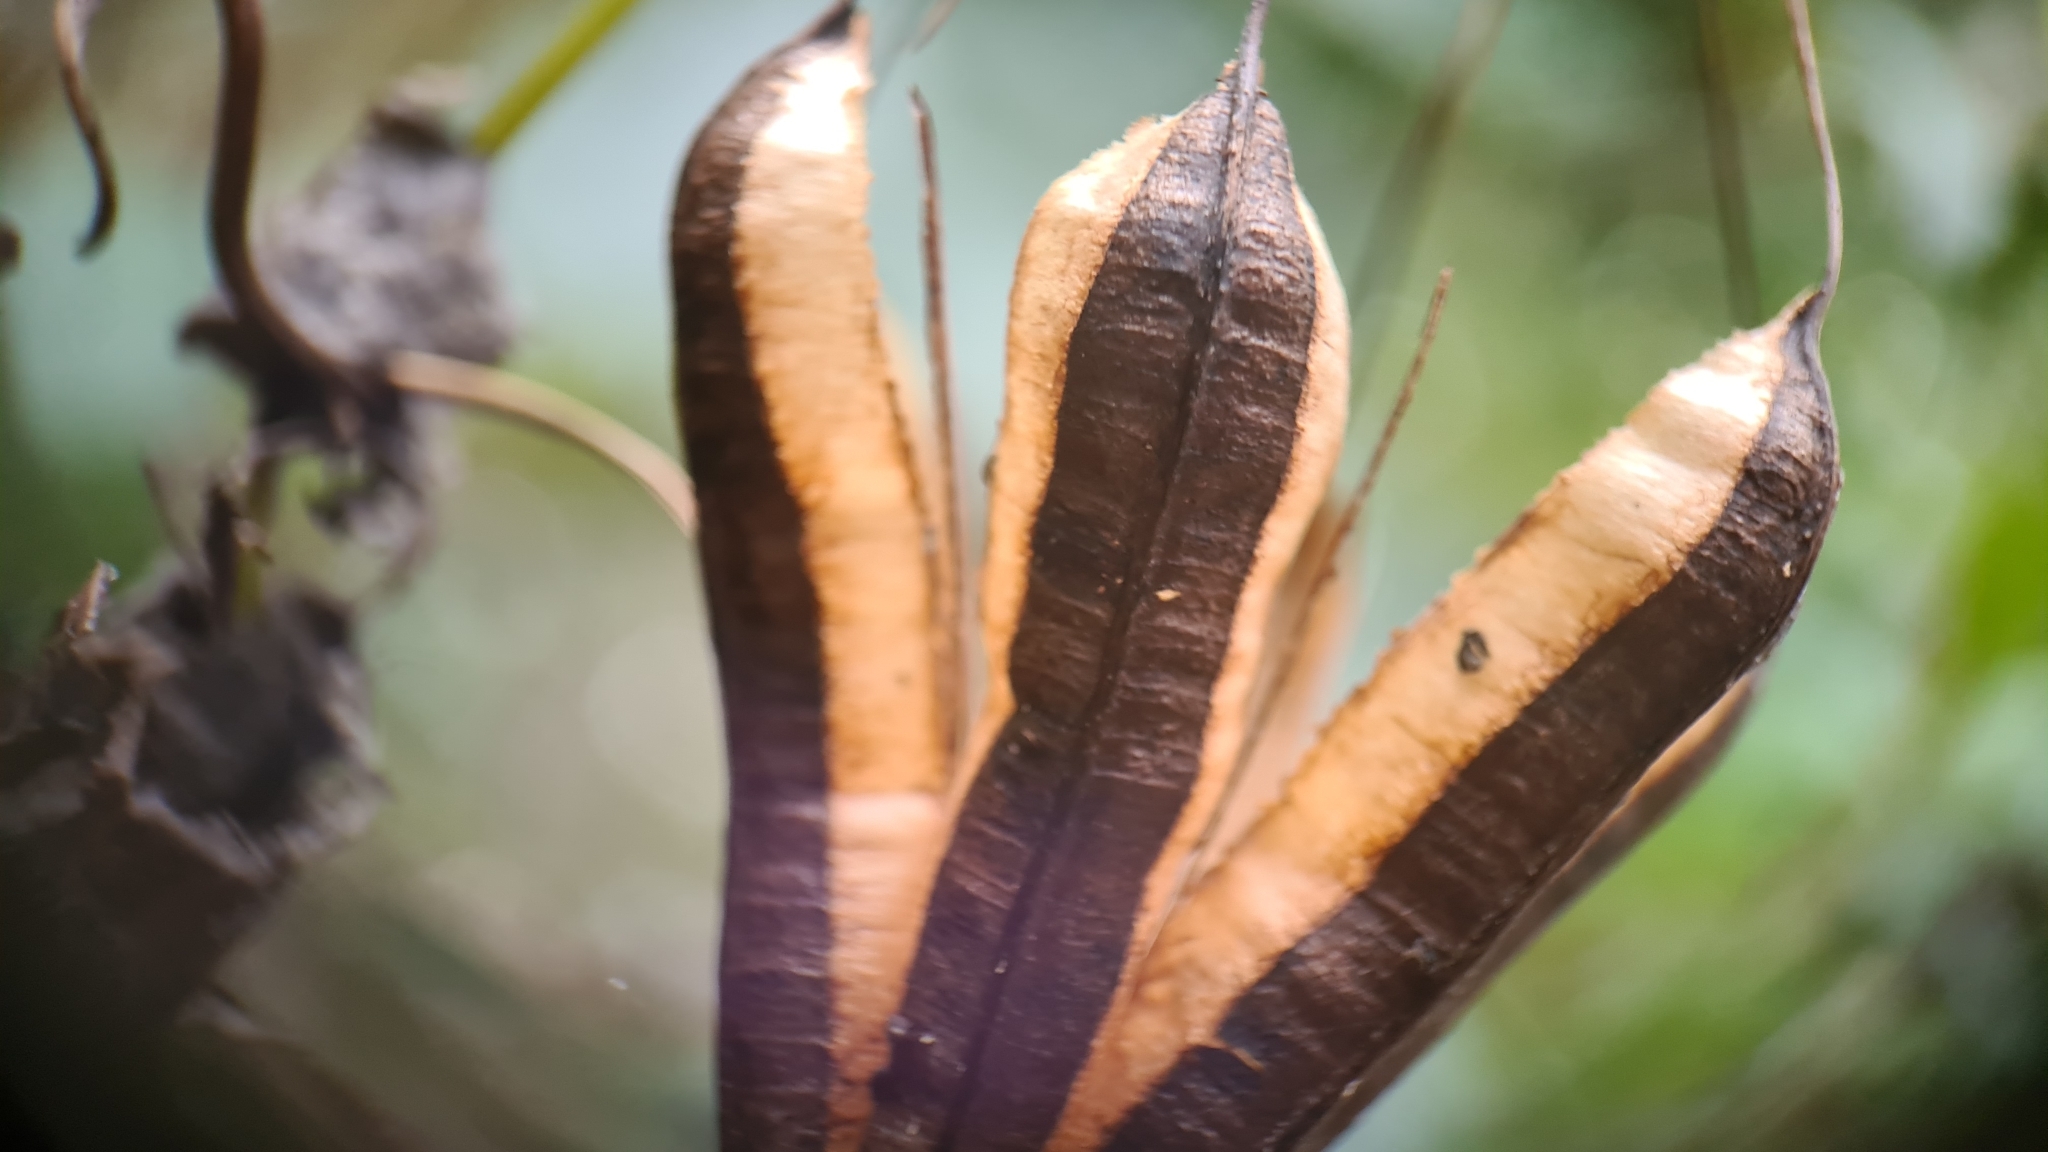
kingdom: Plantae
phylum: Tracheophyta
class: Magnoliopsida
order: Piperales
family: Aristolochiaceae
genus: Aristolochia
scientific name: Aristolochia littoralis
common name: Duck
